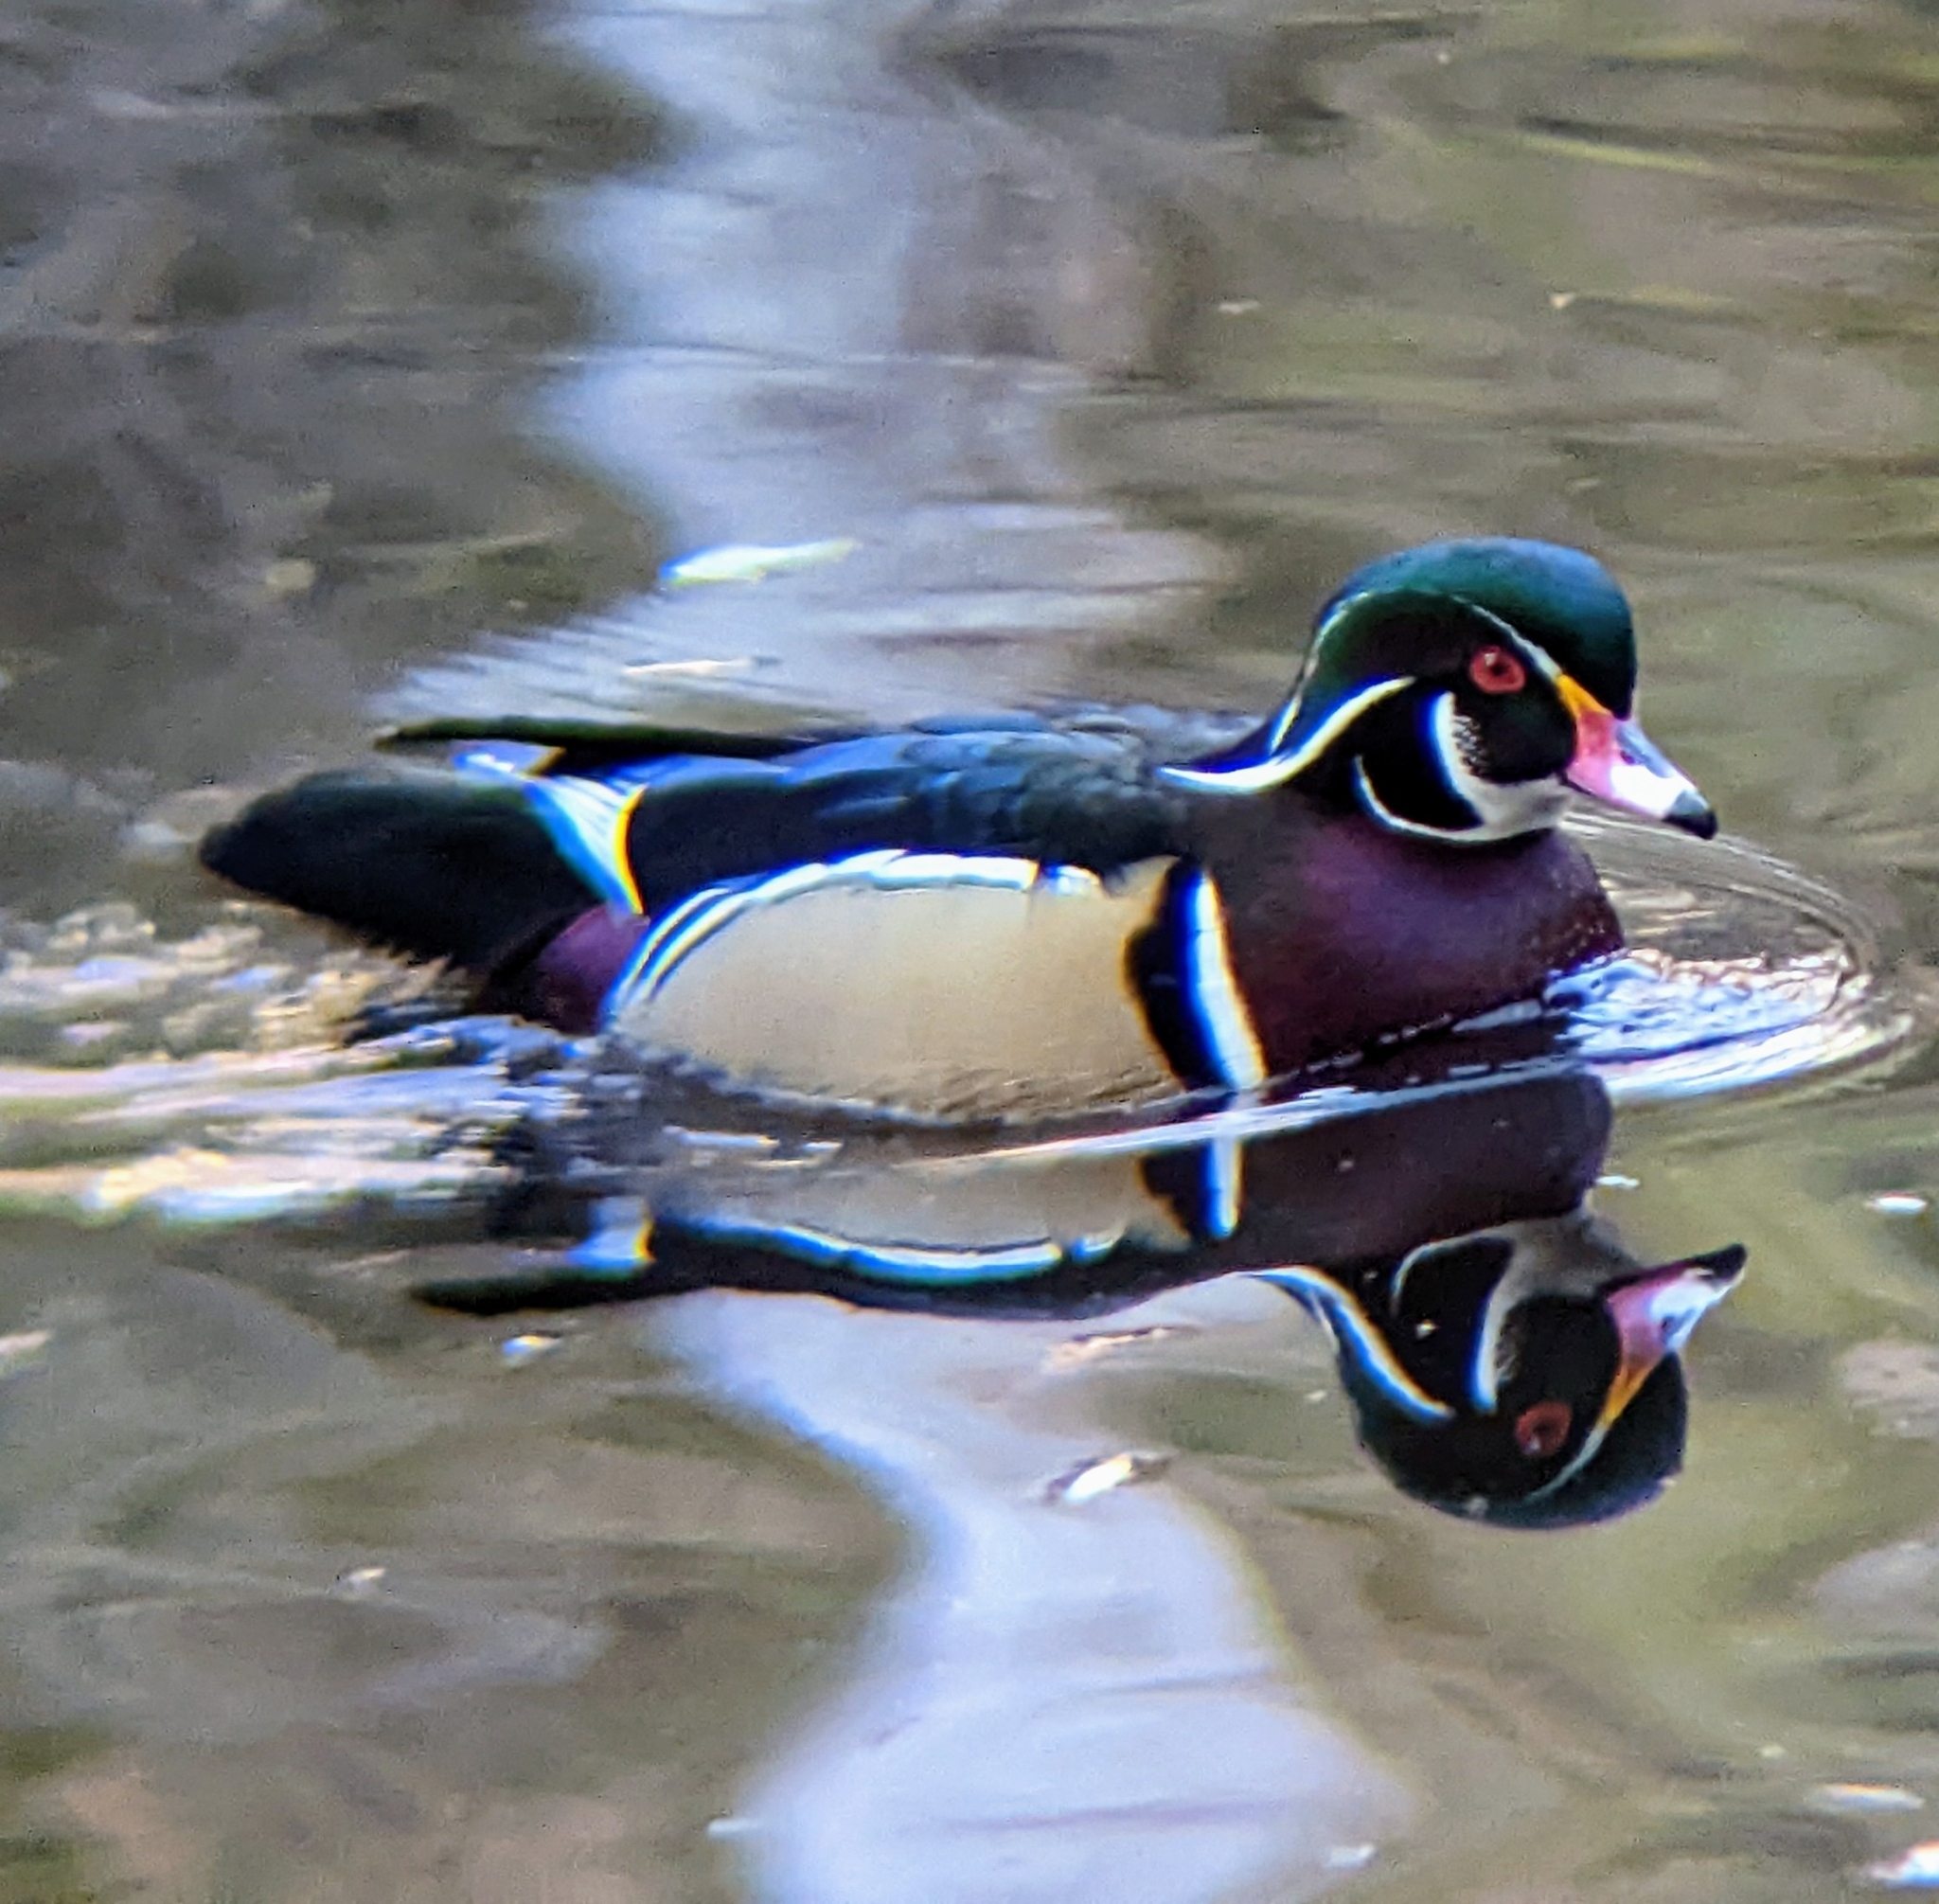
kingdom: Animalia
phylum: Chordata
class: Aves
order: Anseriformes
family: Anatidae
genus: Aix
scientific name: Aix sponsa
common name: Wood duck
